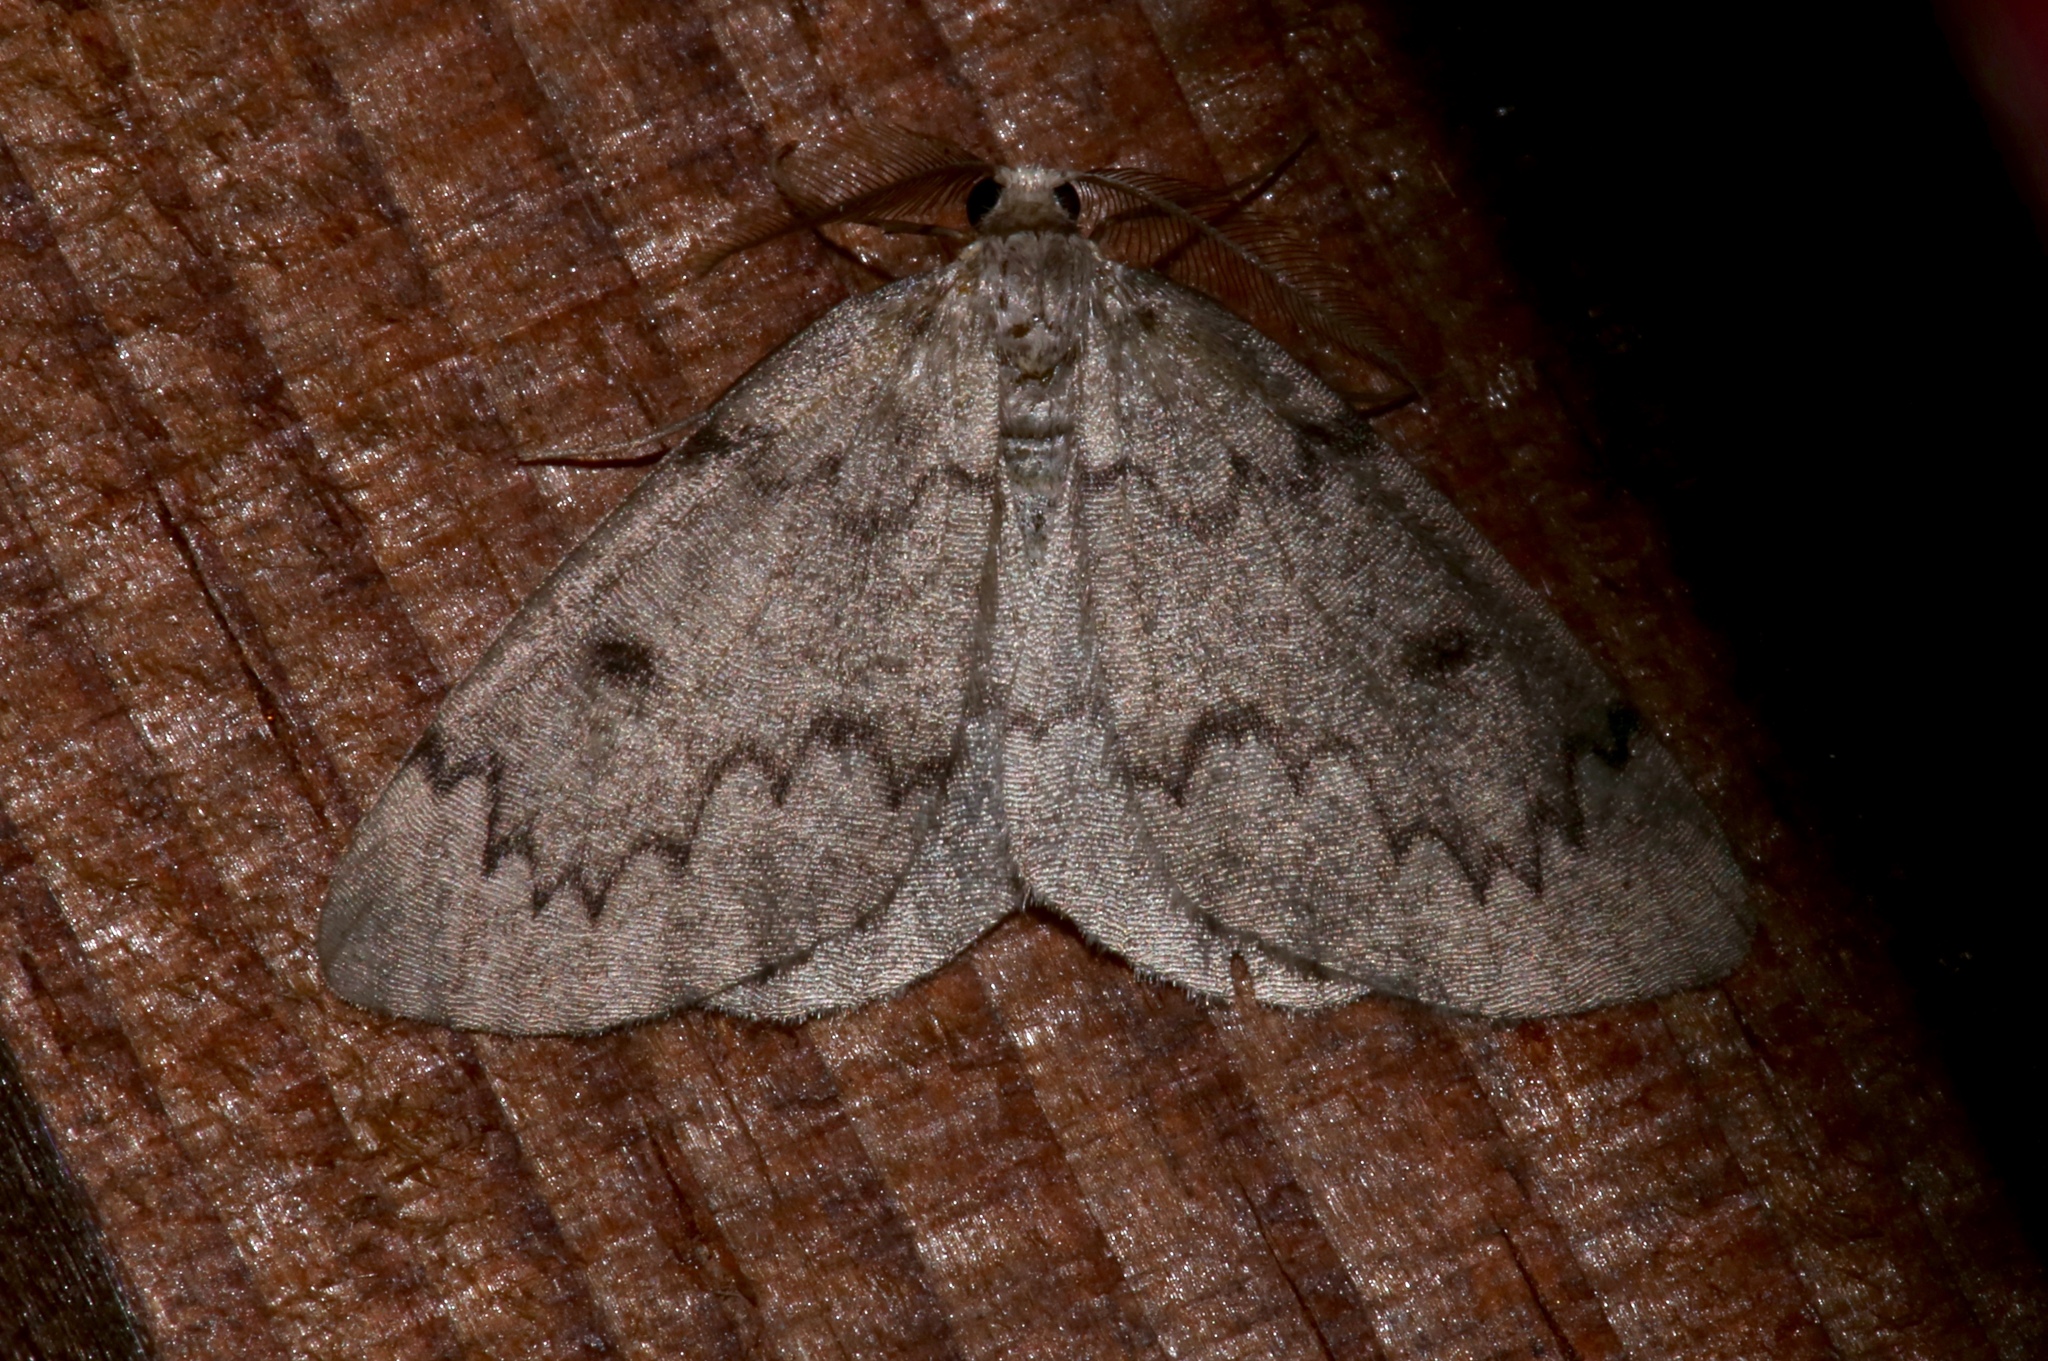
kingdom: Animalia
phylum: Arthropoda
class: Insecta
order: Lepidoptera
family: Geometridae
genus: Nepytia
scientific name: Nepytia canosaria
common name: False hemlock looper
